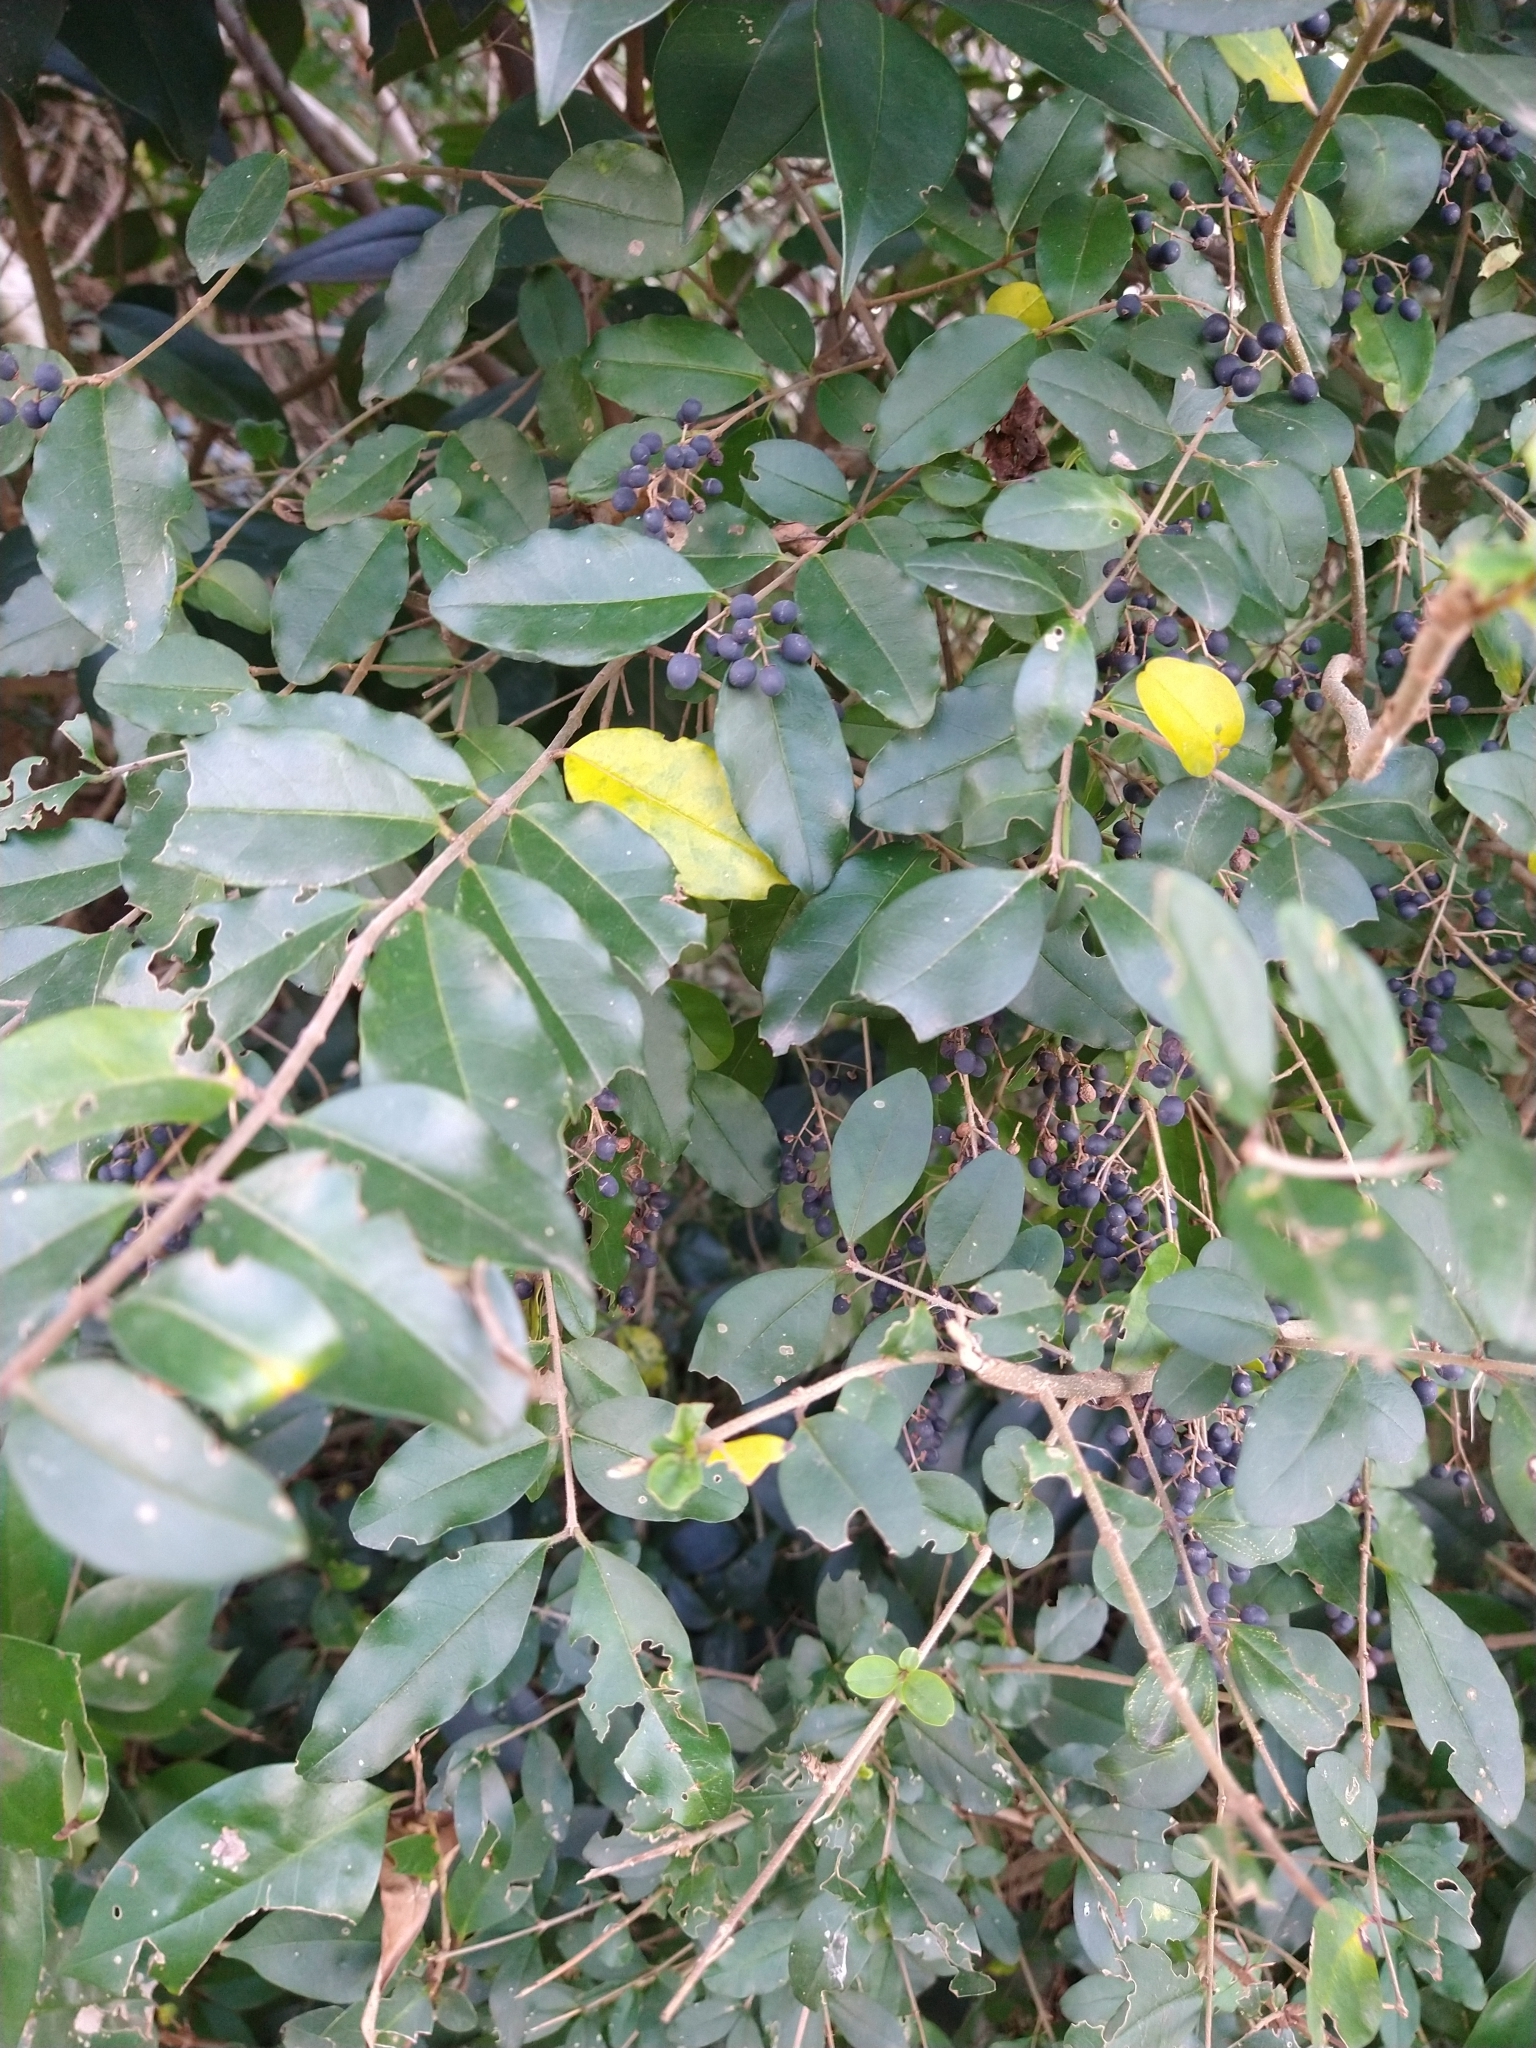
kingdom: Plantae
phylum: Tracheophyta
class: Magnoliopsida
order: Lamiales
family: Oleaceae
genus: Ligustrum
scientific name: Ligustrum lucidum
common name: Glossy privet
